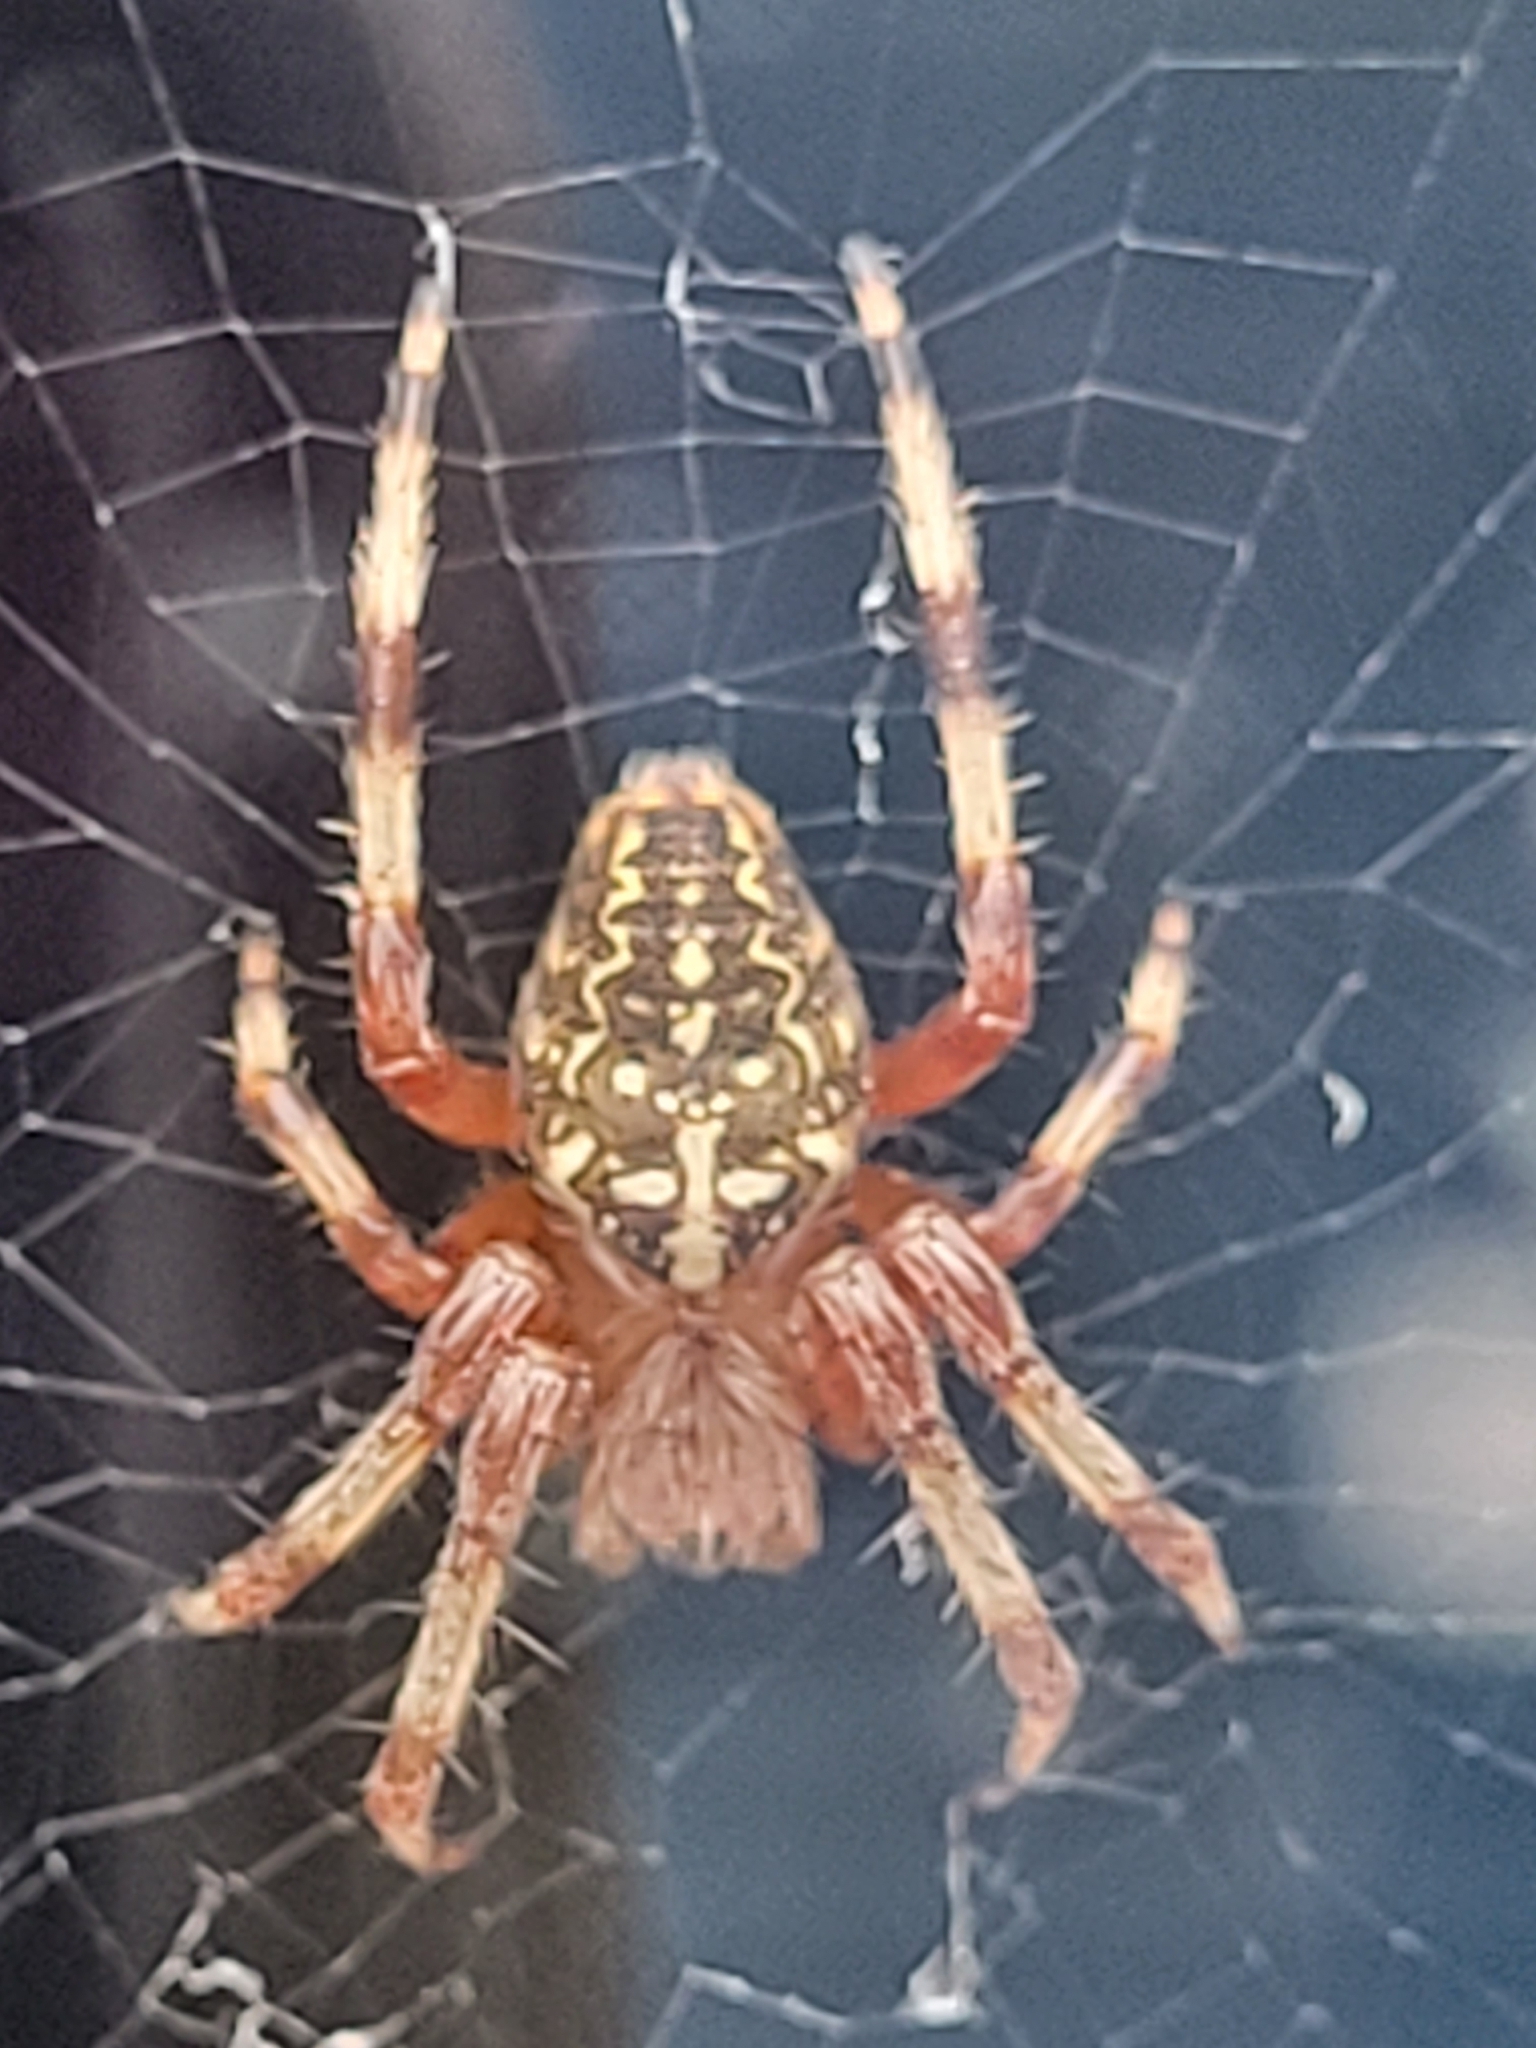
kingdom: Animalia
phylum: Arthropoda
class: Arachnida
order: Araneae
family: Araneidae
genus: Araneus
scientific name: Araneus marmoreus
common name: Marbled orbweaver
